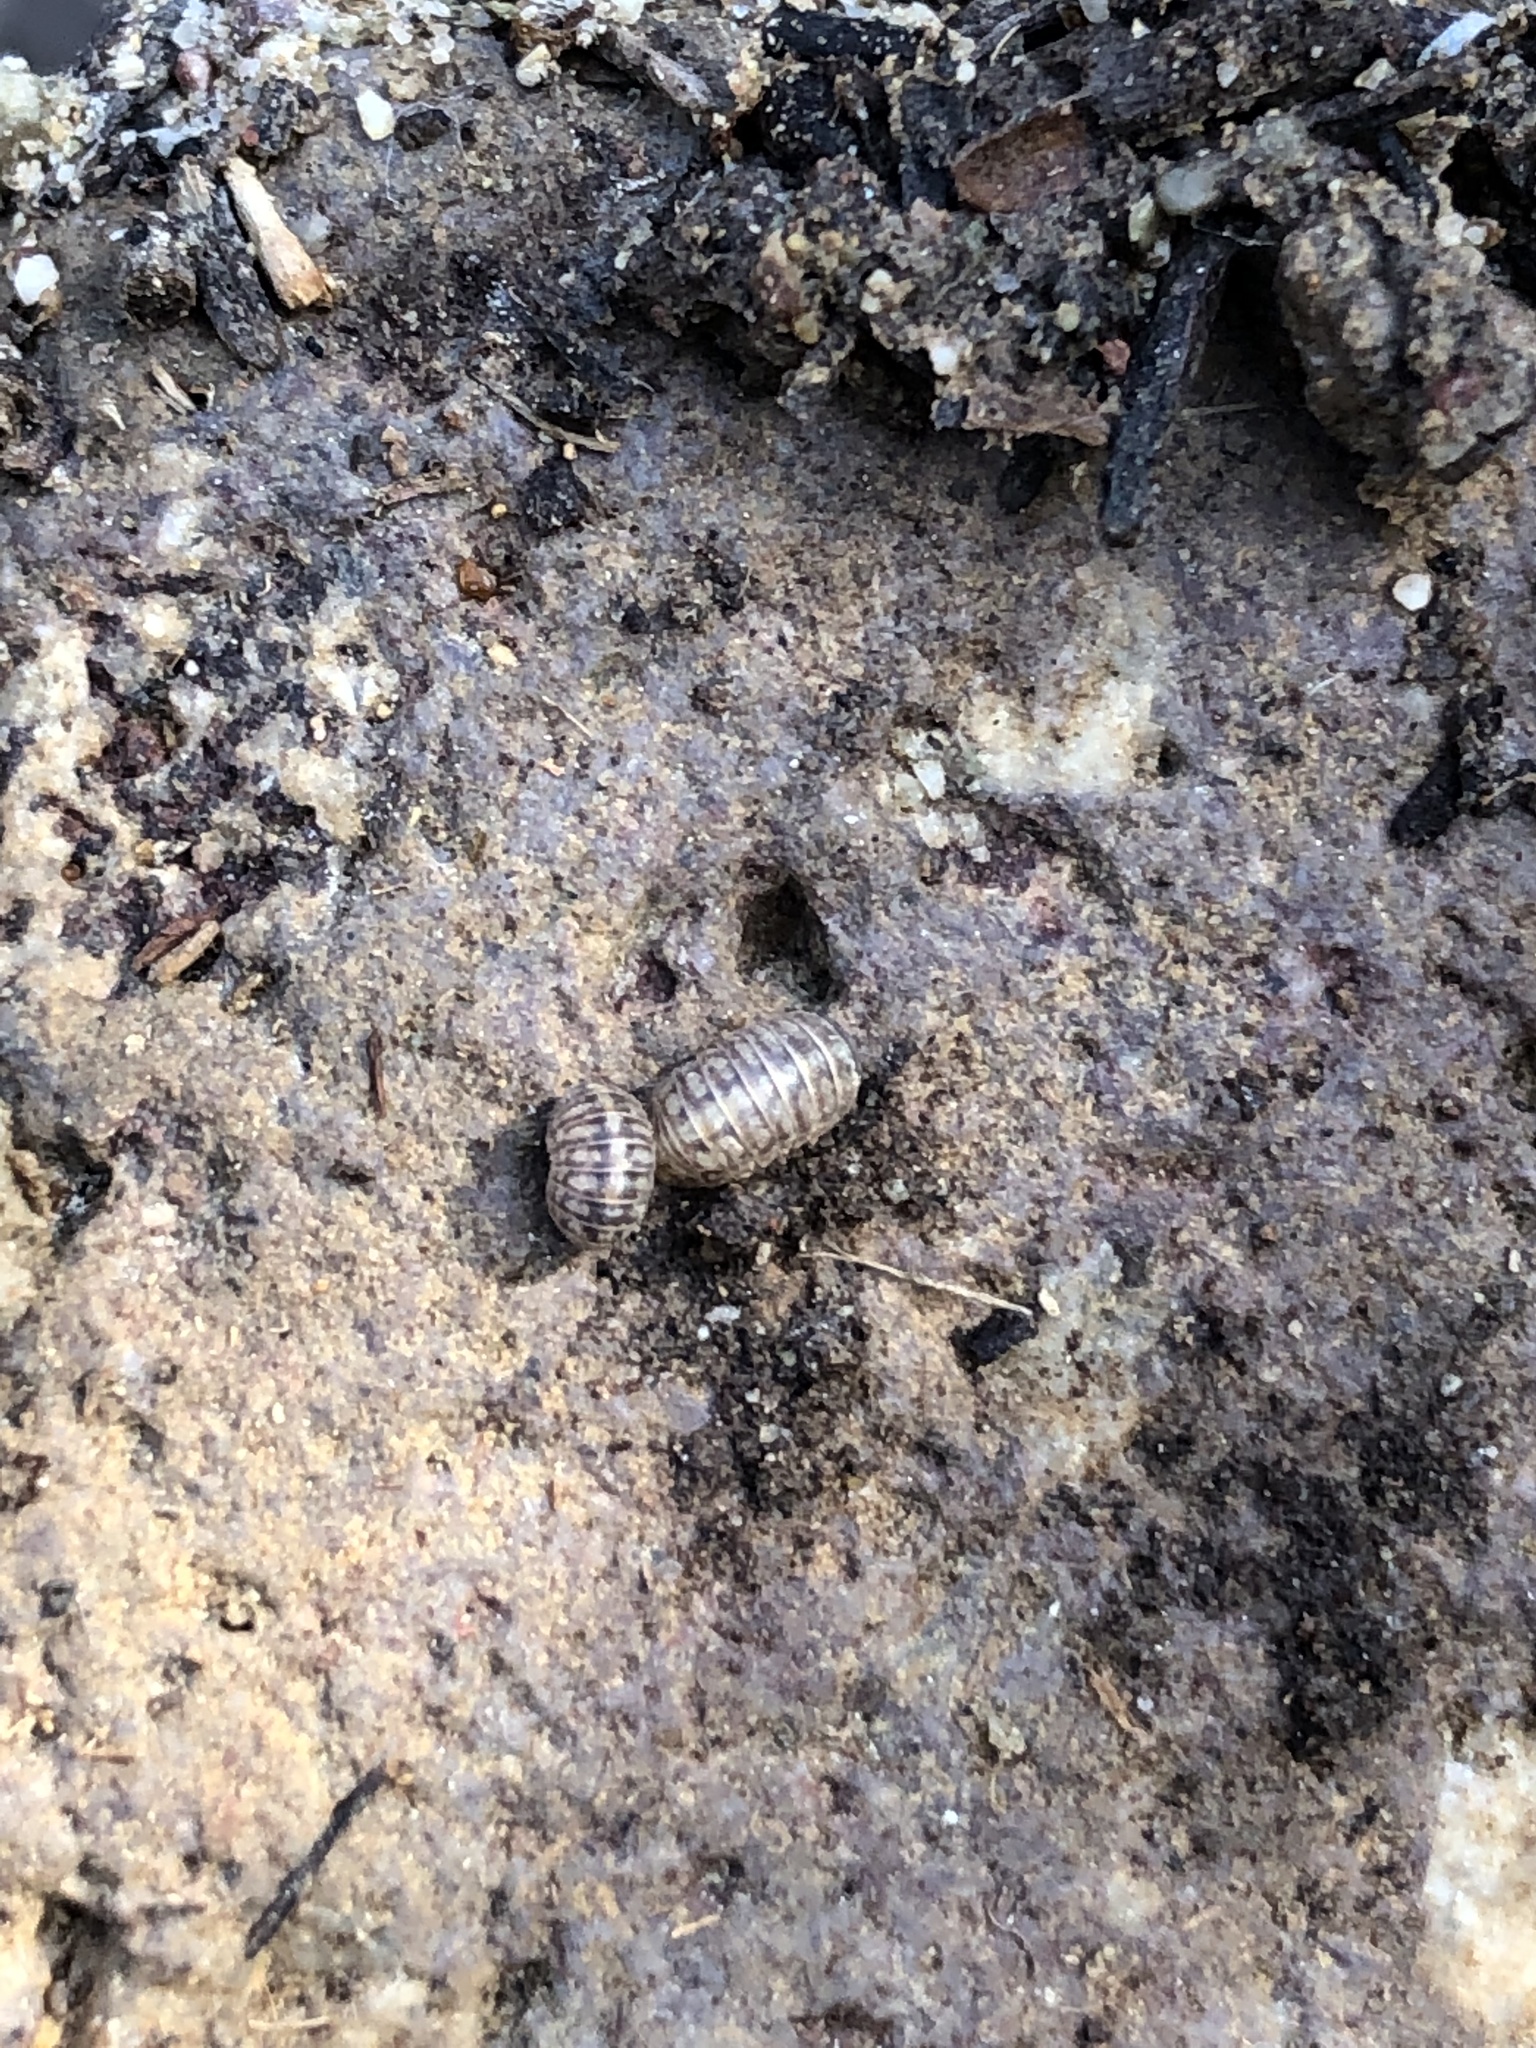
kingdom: Animalia
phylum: Arthropoda
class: Malacostraca
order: Isopoda
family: Armadillidiidae
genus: Armadillidium
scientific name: Armadillidium vulgare
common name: Common pill woodlouse
